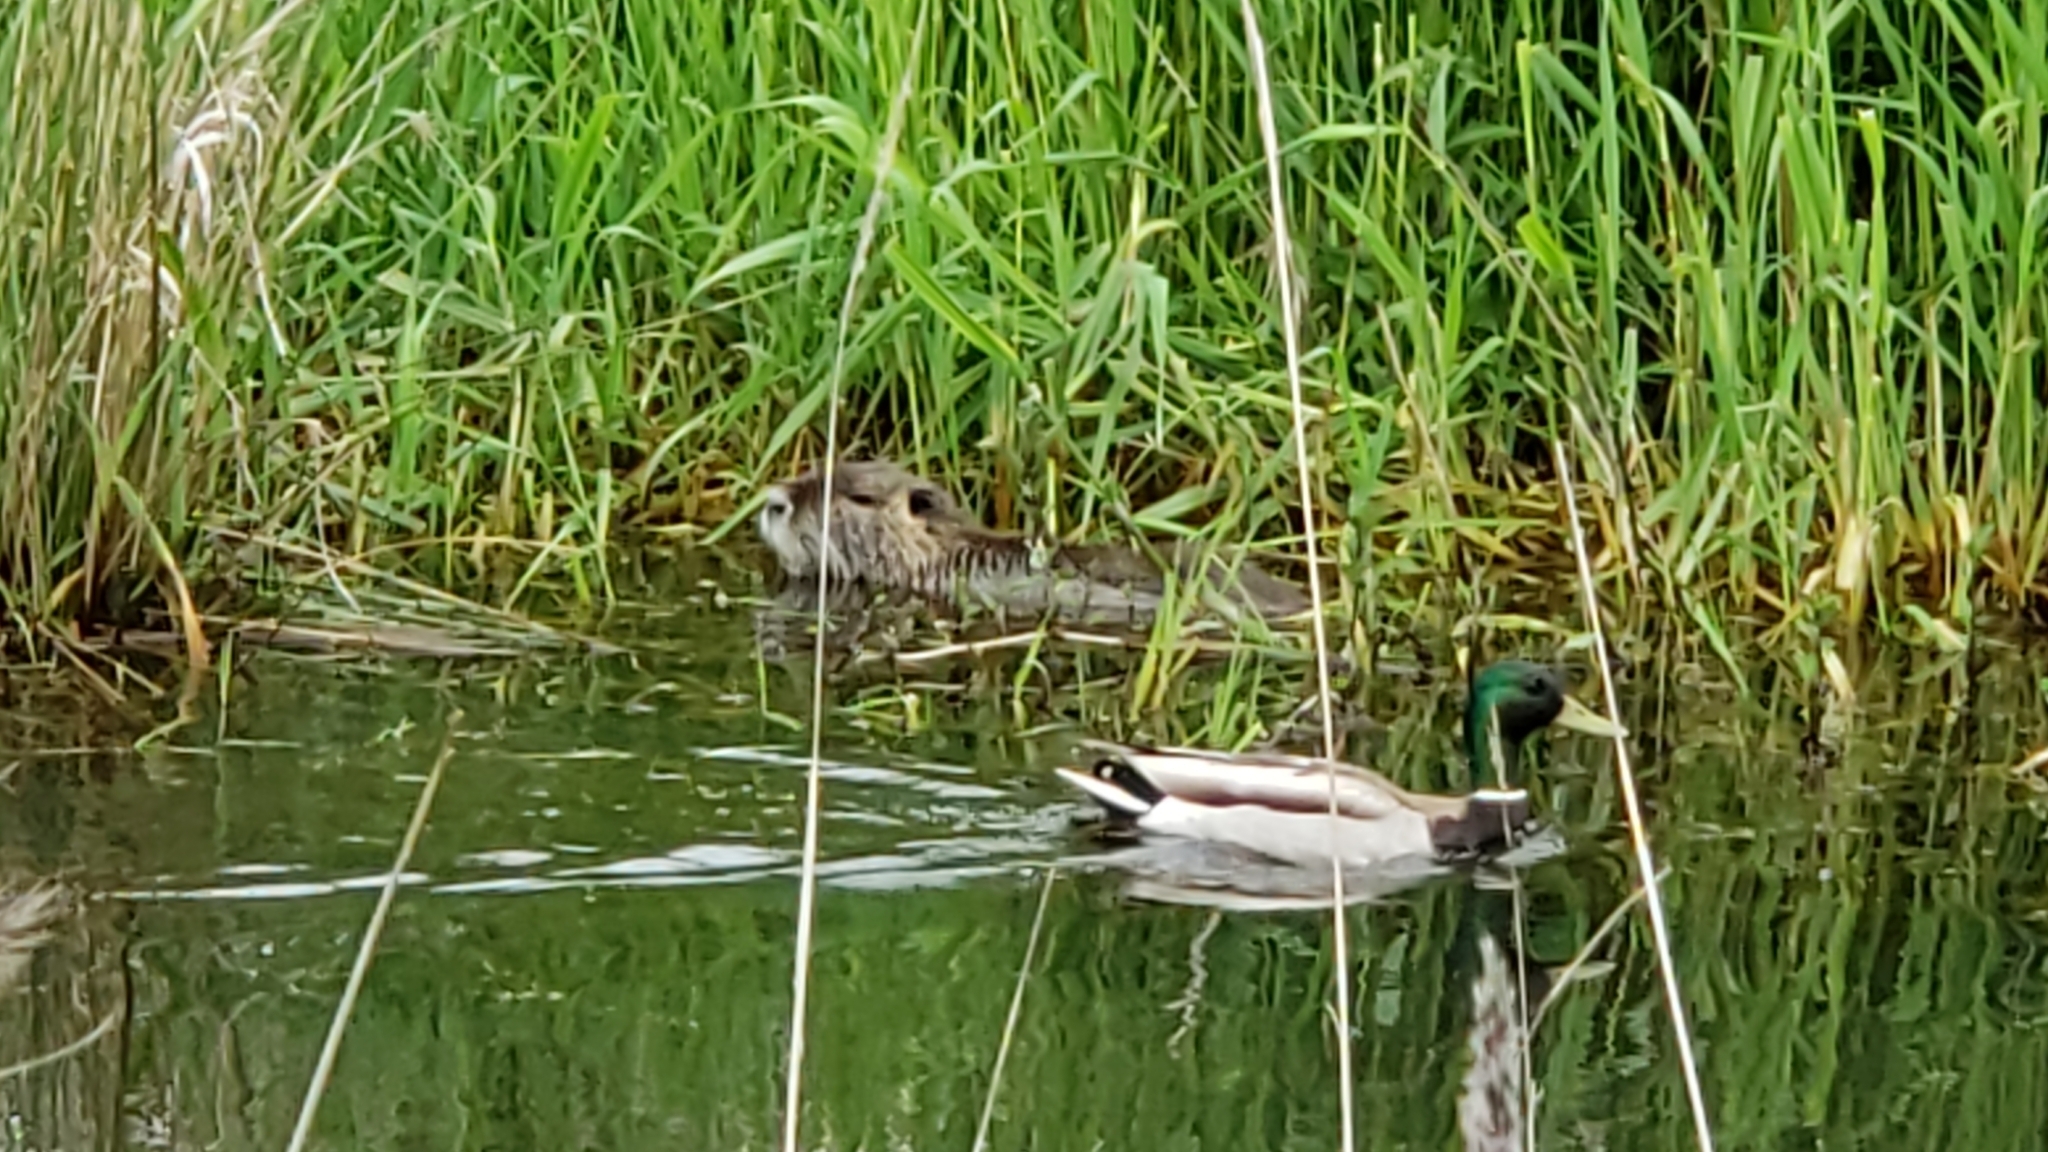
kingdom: Animalia
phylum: Chordata
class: Aves
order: Anseriformes
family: Anatidae
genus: Anas
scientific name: Anas platyrhynchos
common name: Mallard
